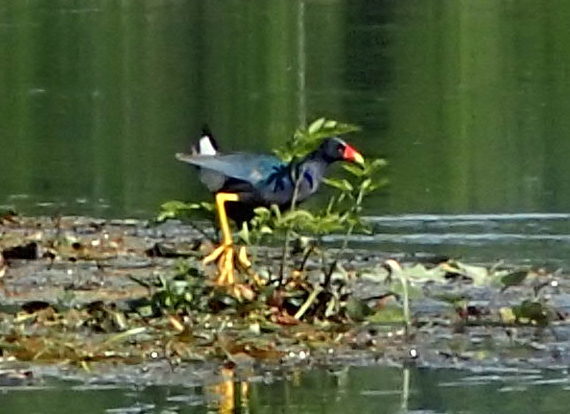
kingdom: Animalia
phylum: Chordata
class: Aves
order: Gruiformes
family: Rallidae
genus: Porphyrio
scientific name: Porphyrio martinica
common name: Purple gallinule
